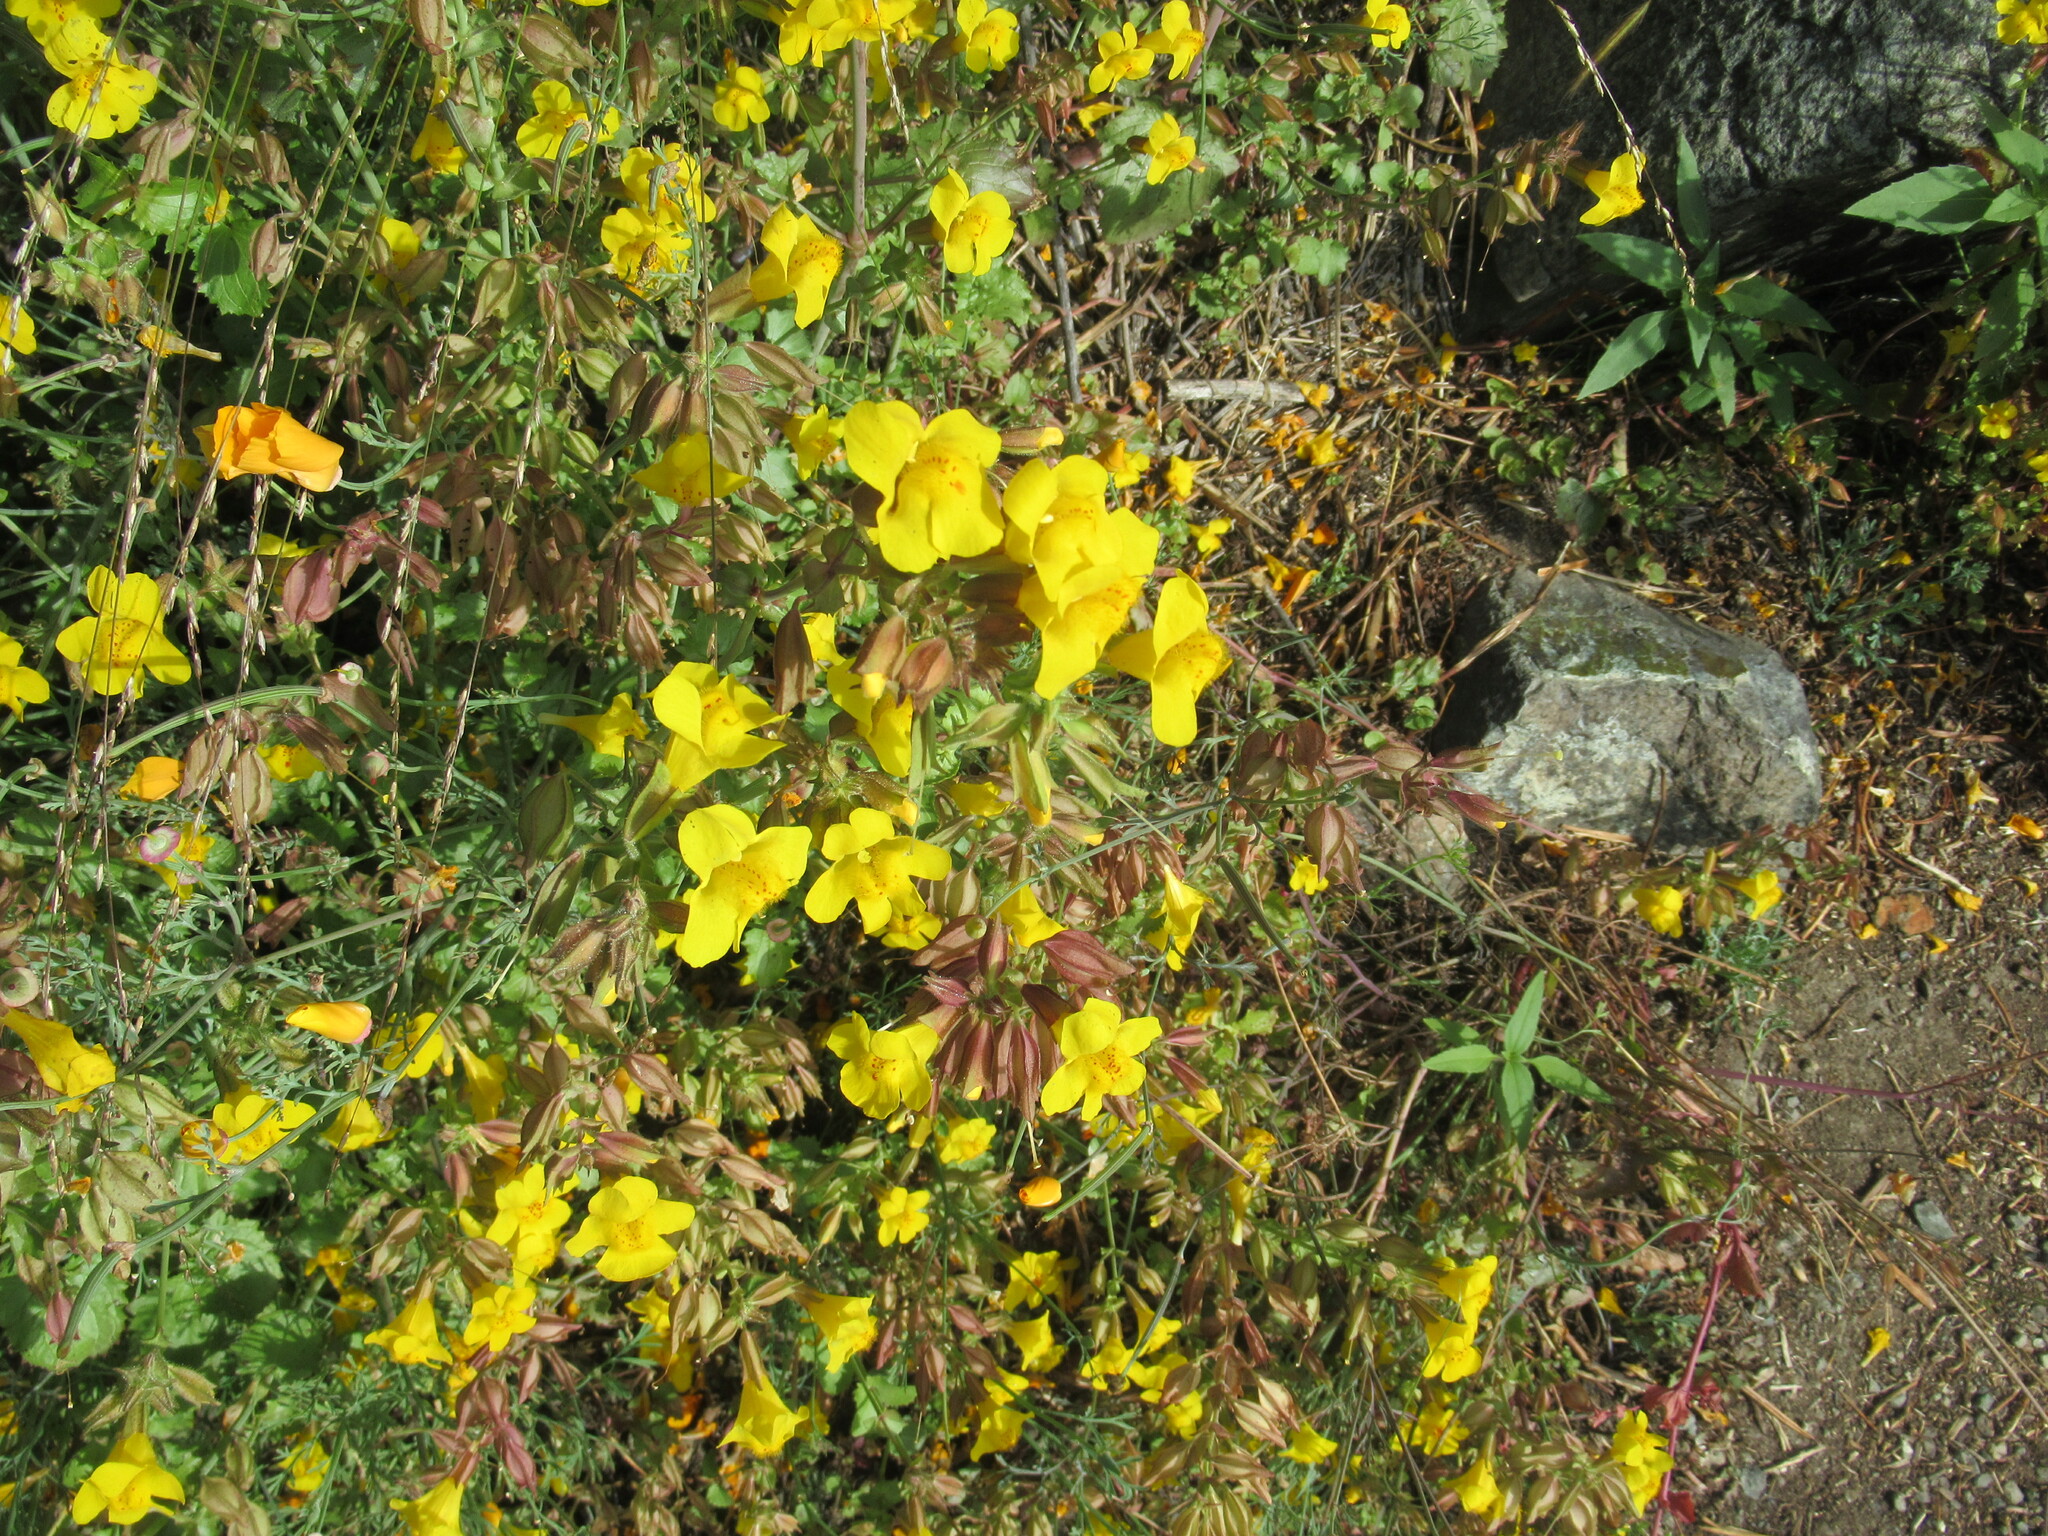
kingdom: Plantae
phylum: Tracheophyta
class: Magnoliopsida
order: Lamiales
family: Phrymaceae
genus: Erythranthe
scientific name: Erythranthe guttata
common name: Monkeyflower
